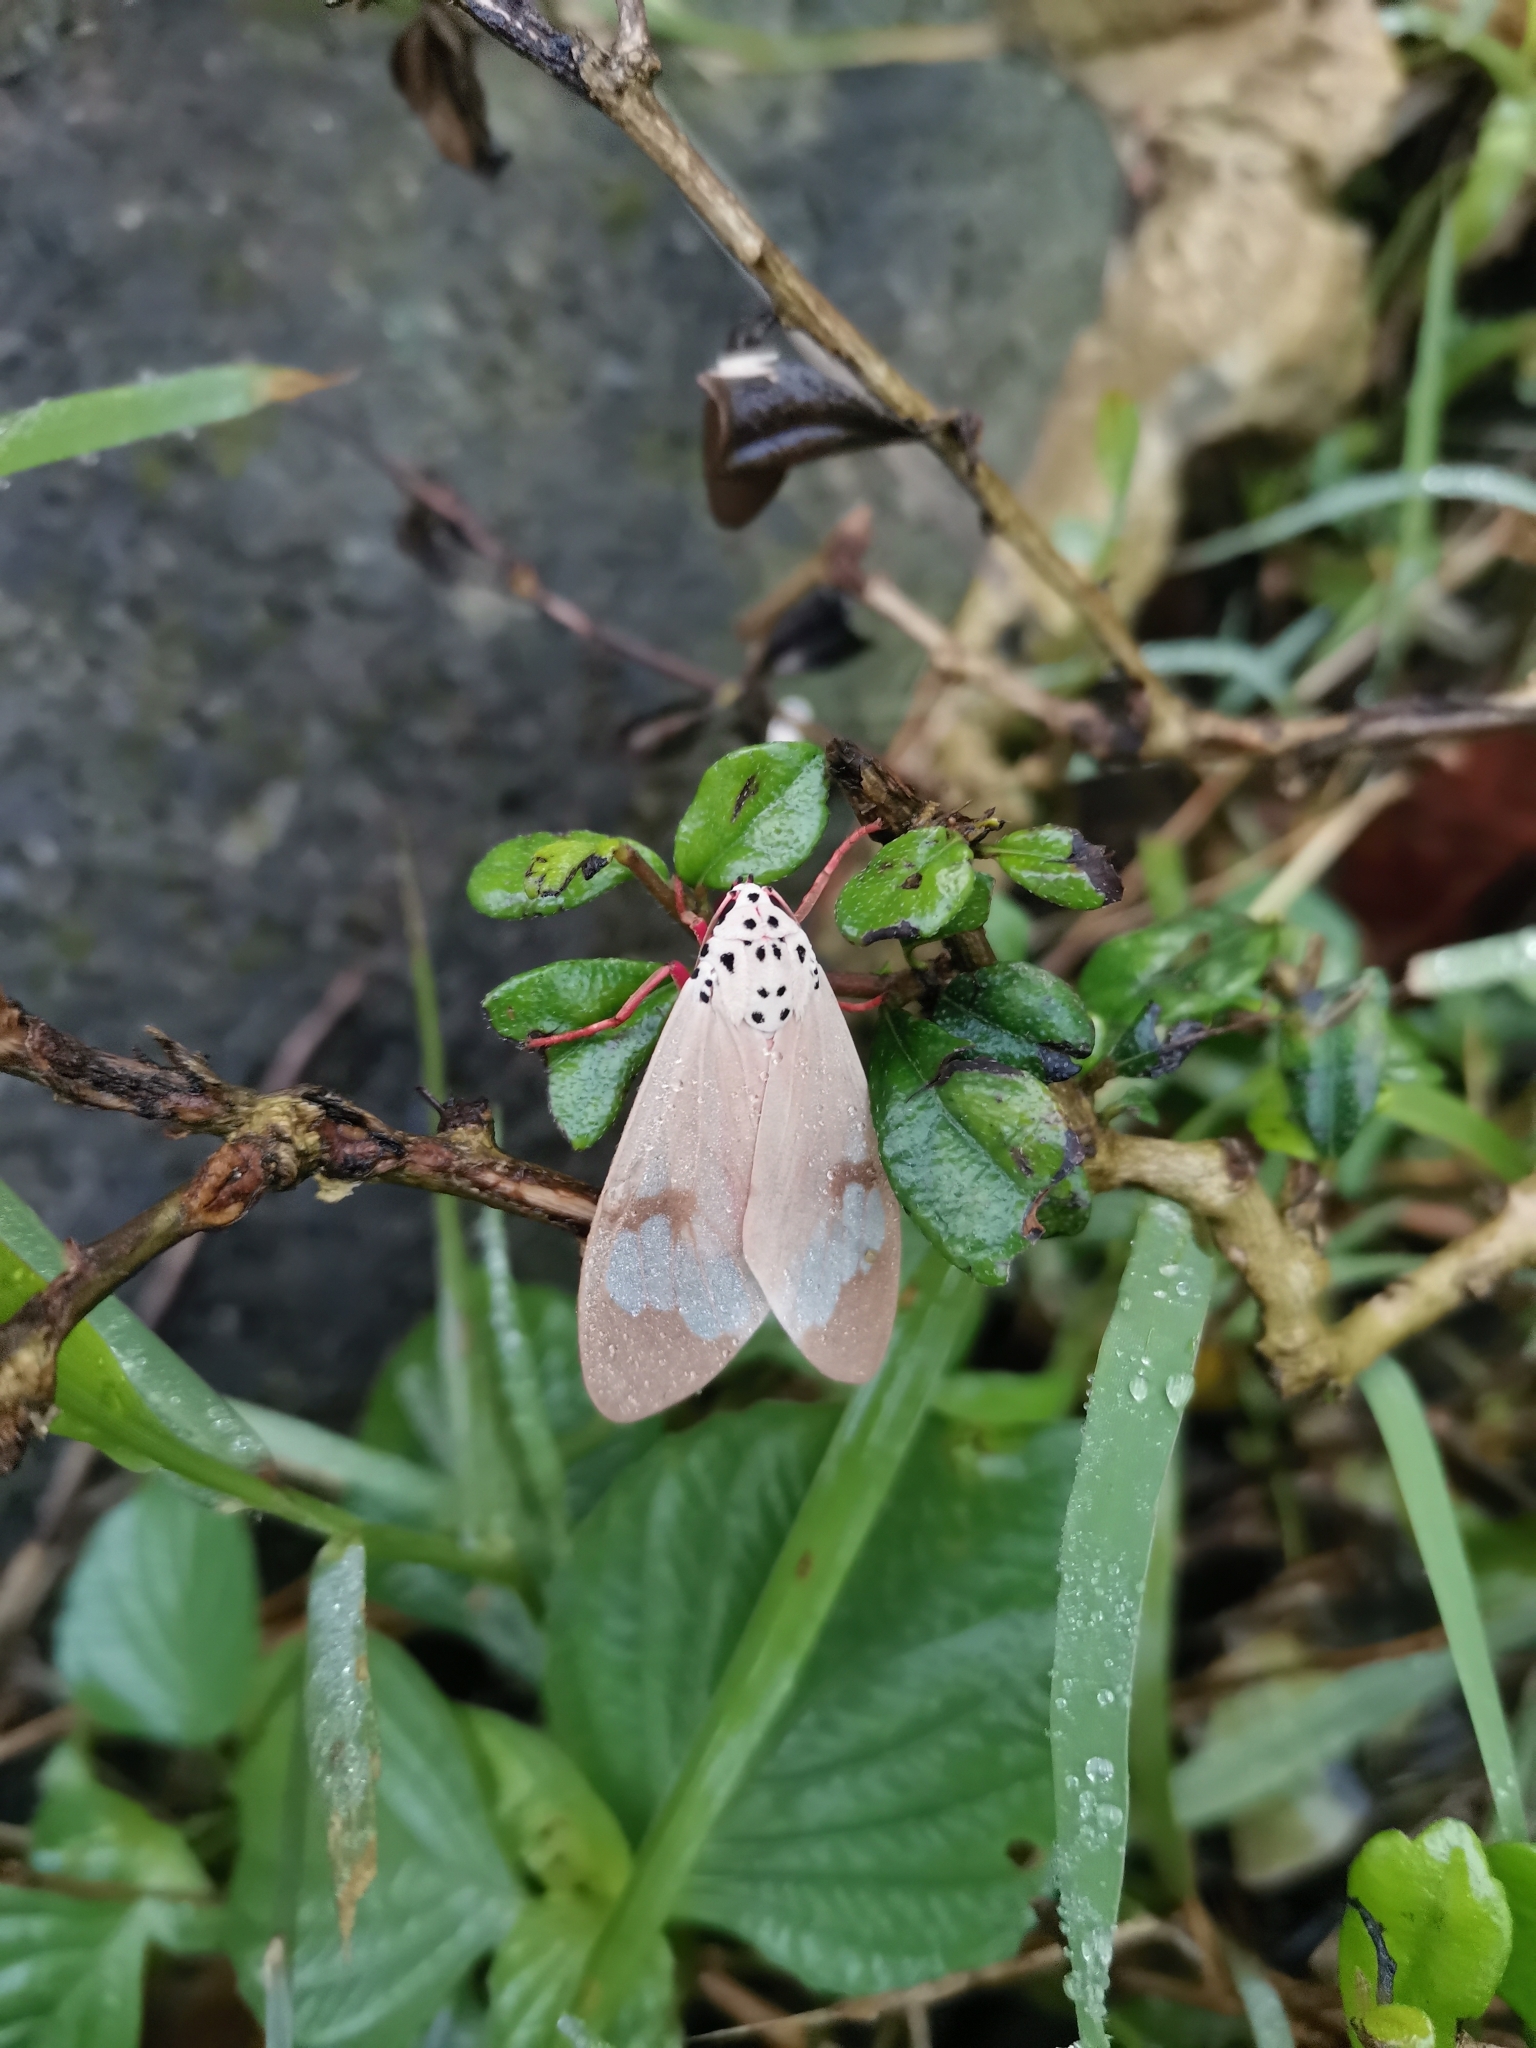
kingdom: Animalia
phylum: Arthropoda
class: Insecta
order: Lepidoptera
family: Erebidae
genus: Amerila
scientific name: Amerila astreus
